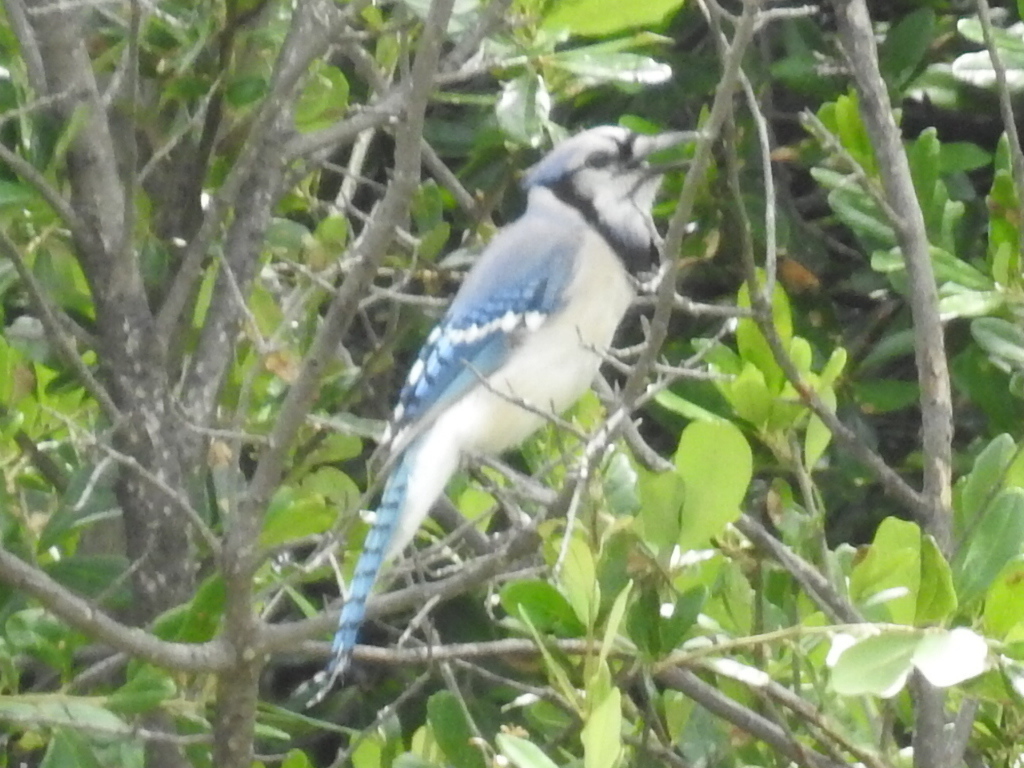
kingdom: Animalia
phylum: Chordata
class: Aves
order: Passeriformes
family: Corvidae
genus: Cyanocitta
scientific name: Cyanocitta cristata
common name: Blue jay
